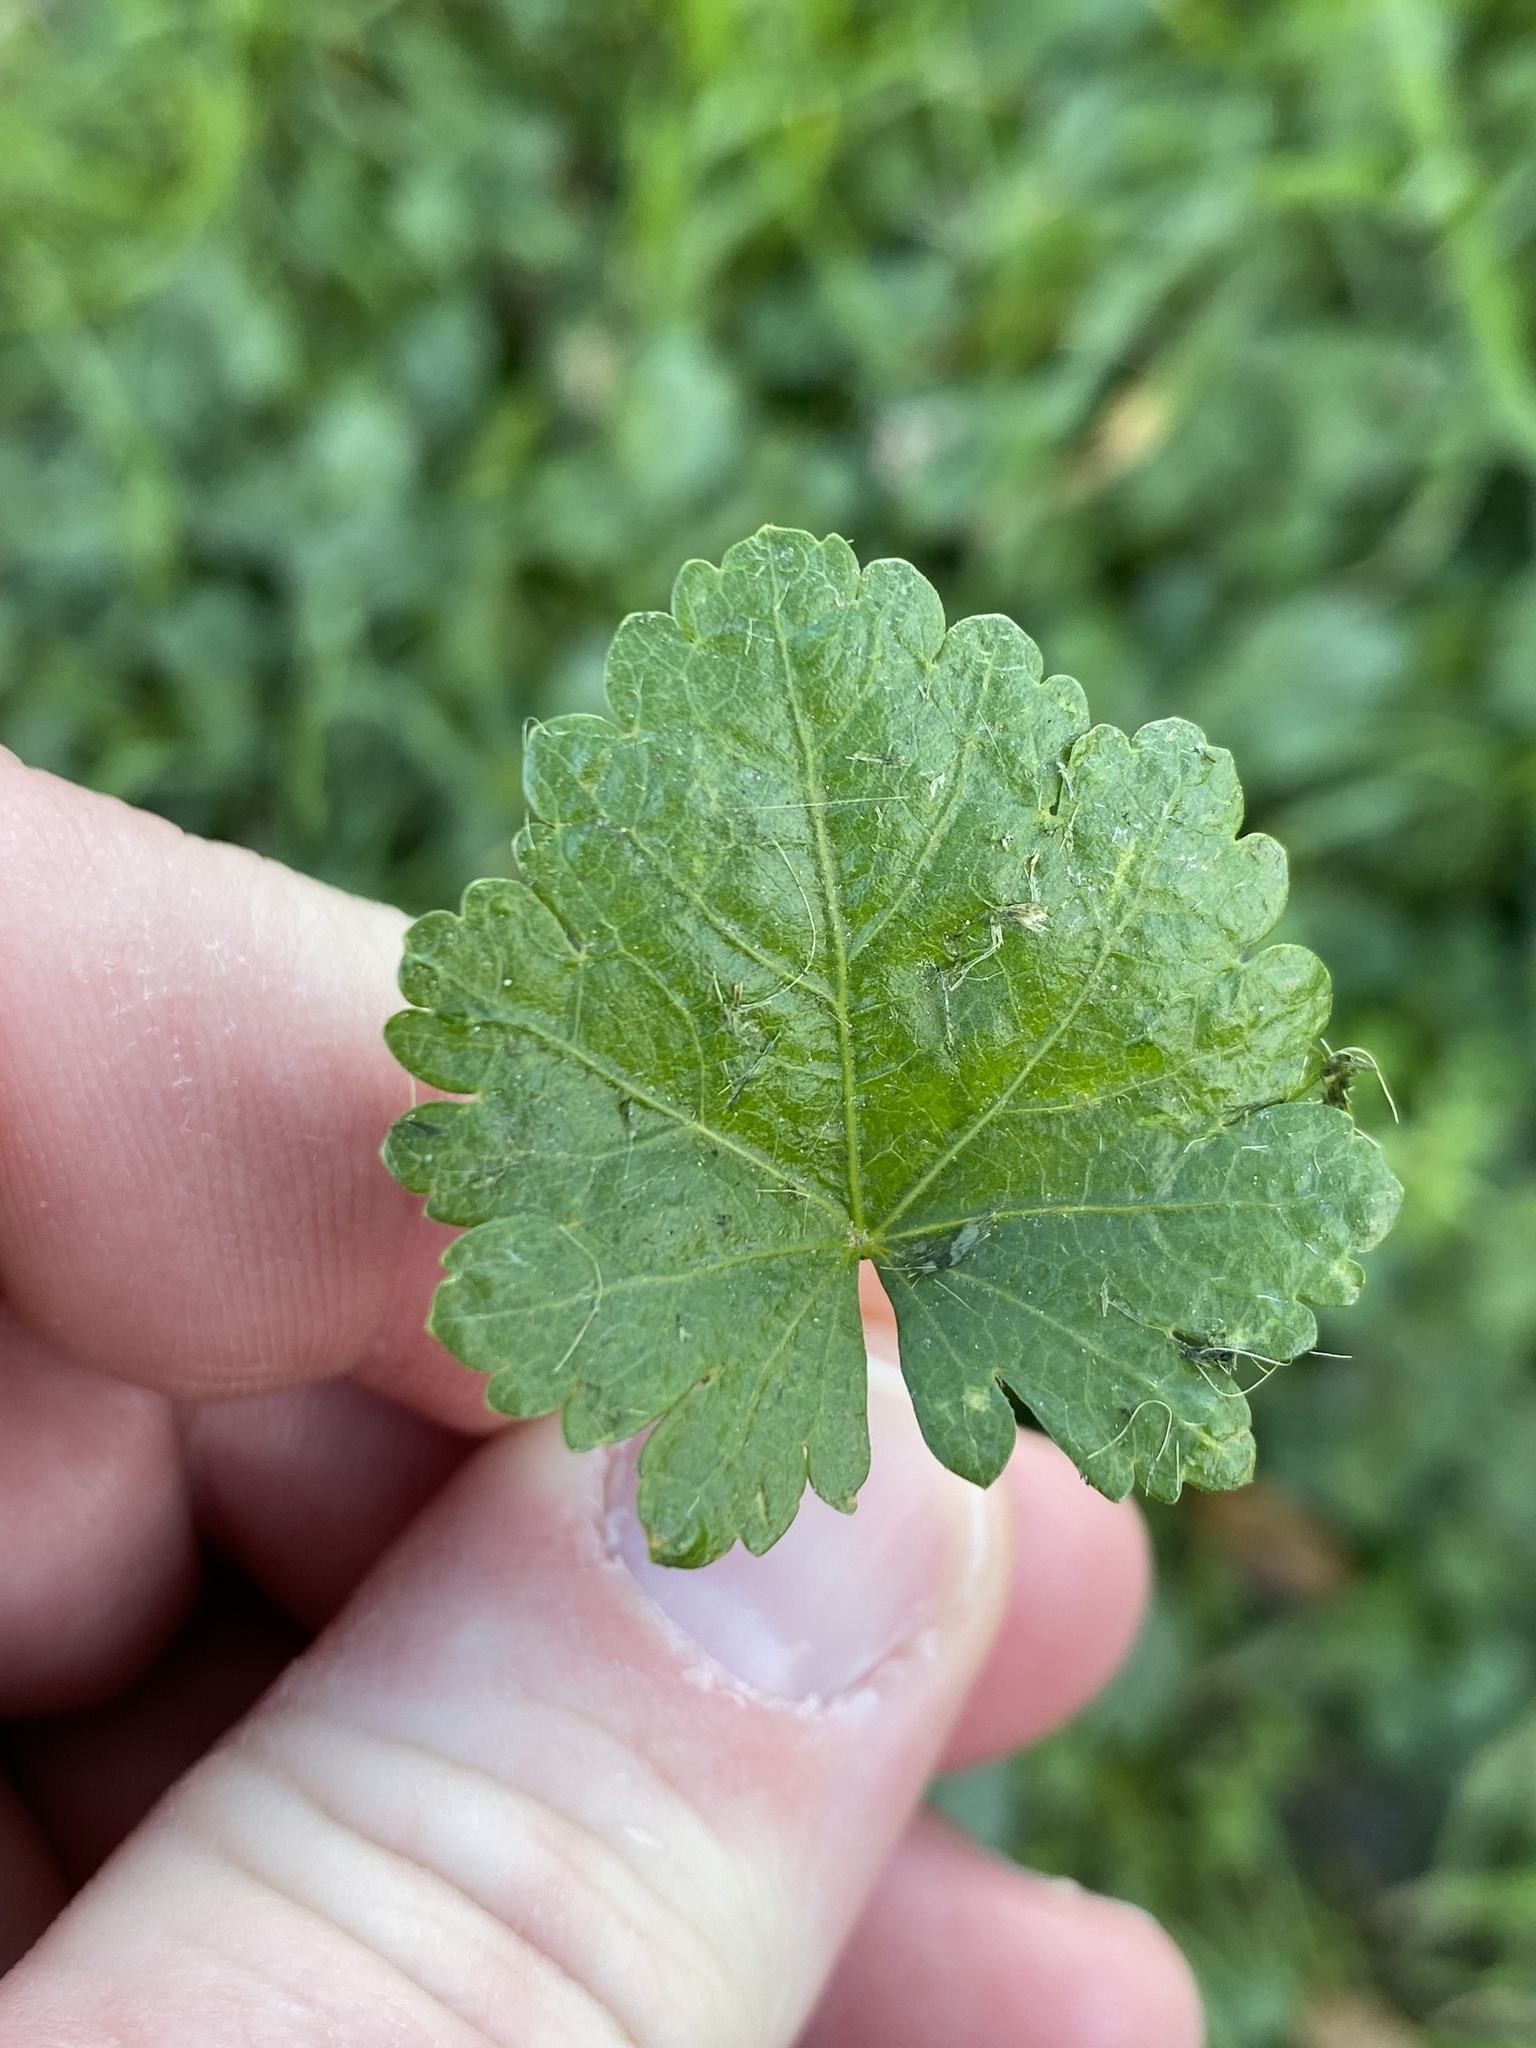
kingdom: Plantae
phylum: Tracheophyta
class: Magnoliopsida
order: Malvales
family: Malvaceae
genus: Modiola
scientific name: Modiola caroliniana
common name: Carolina bristlemallow
